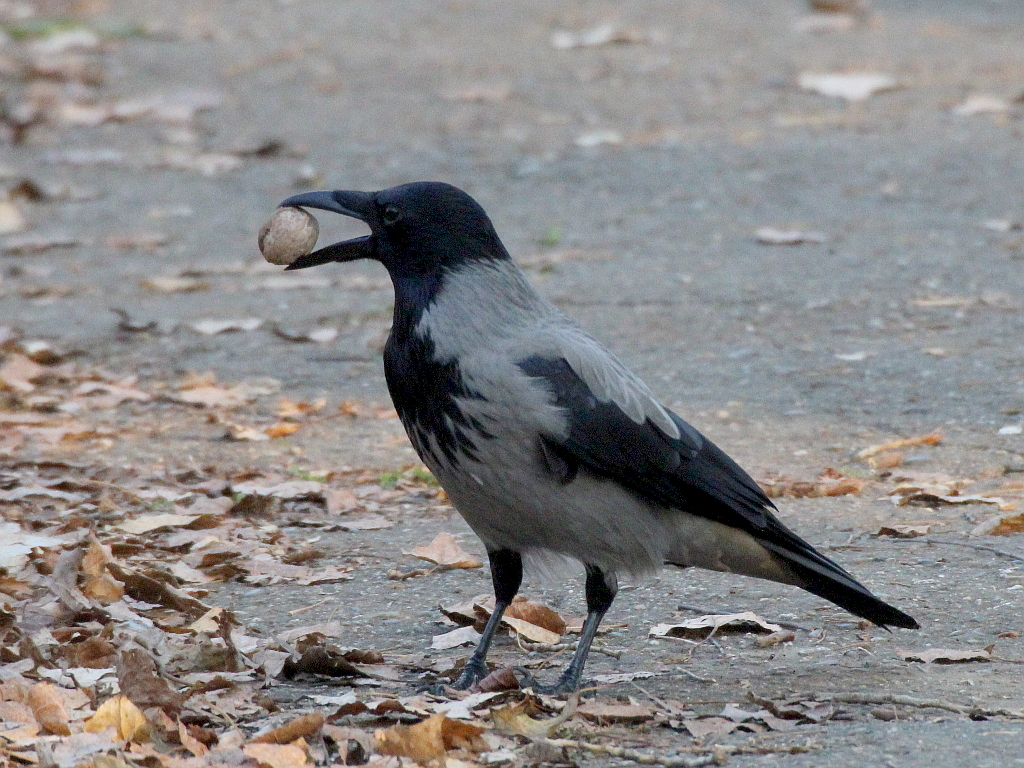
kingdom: Animalia
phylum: Chordata
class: Aves
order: Passeriformes
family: Corvidae
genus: Corvus
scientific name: Corvus cornix
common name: Hooded crow
